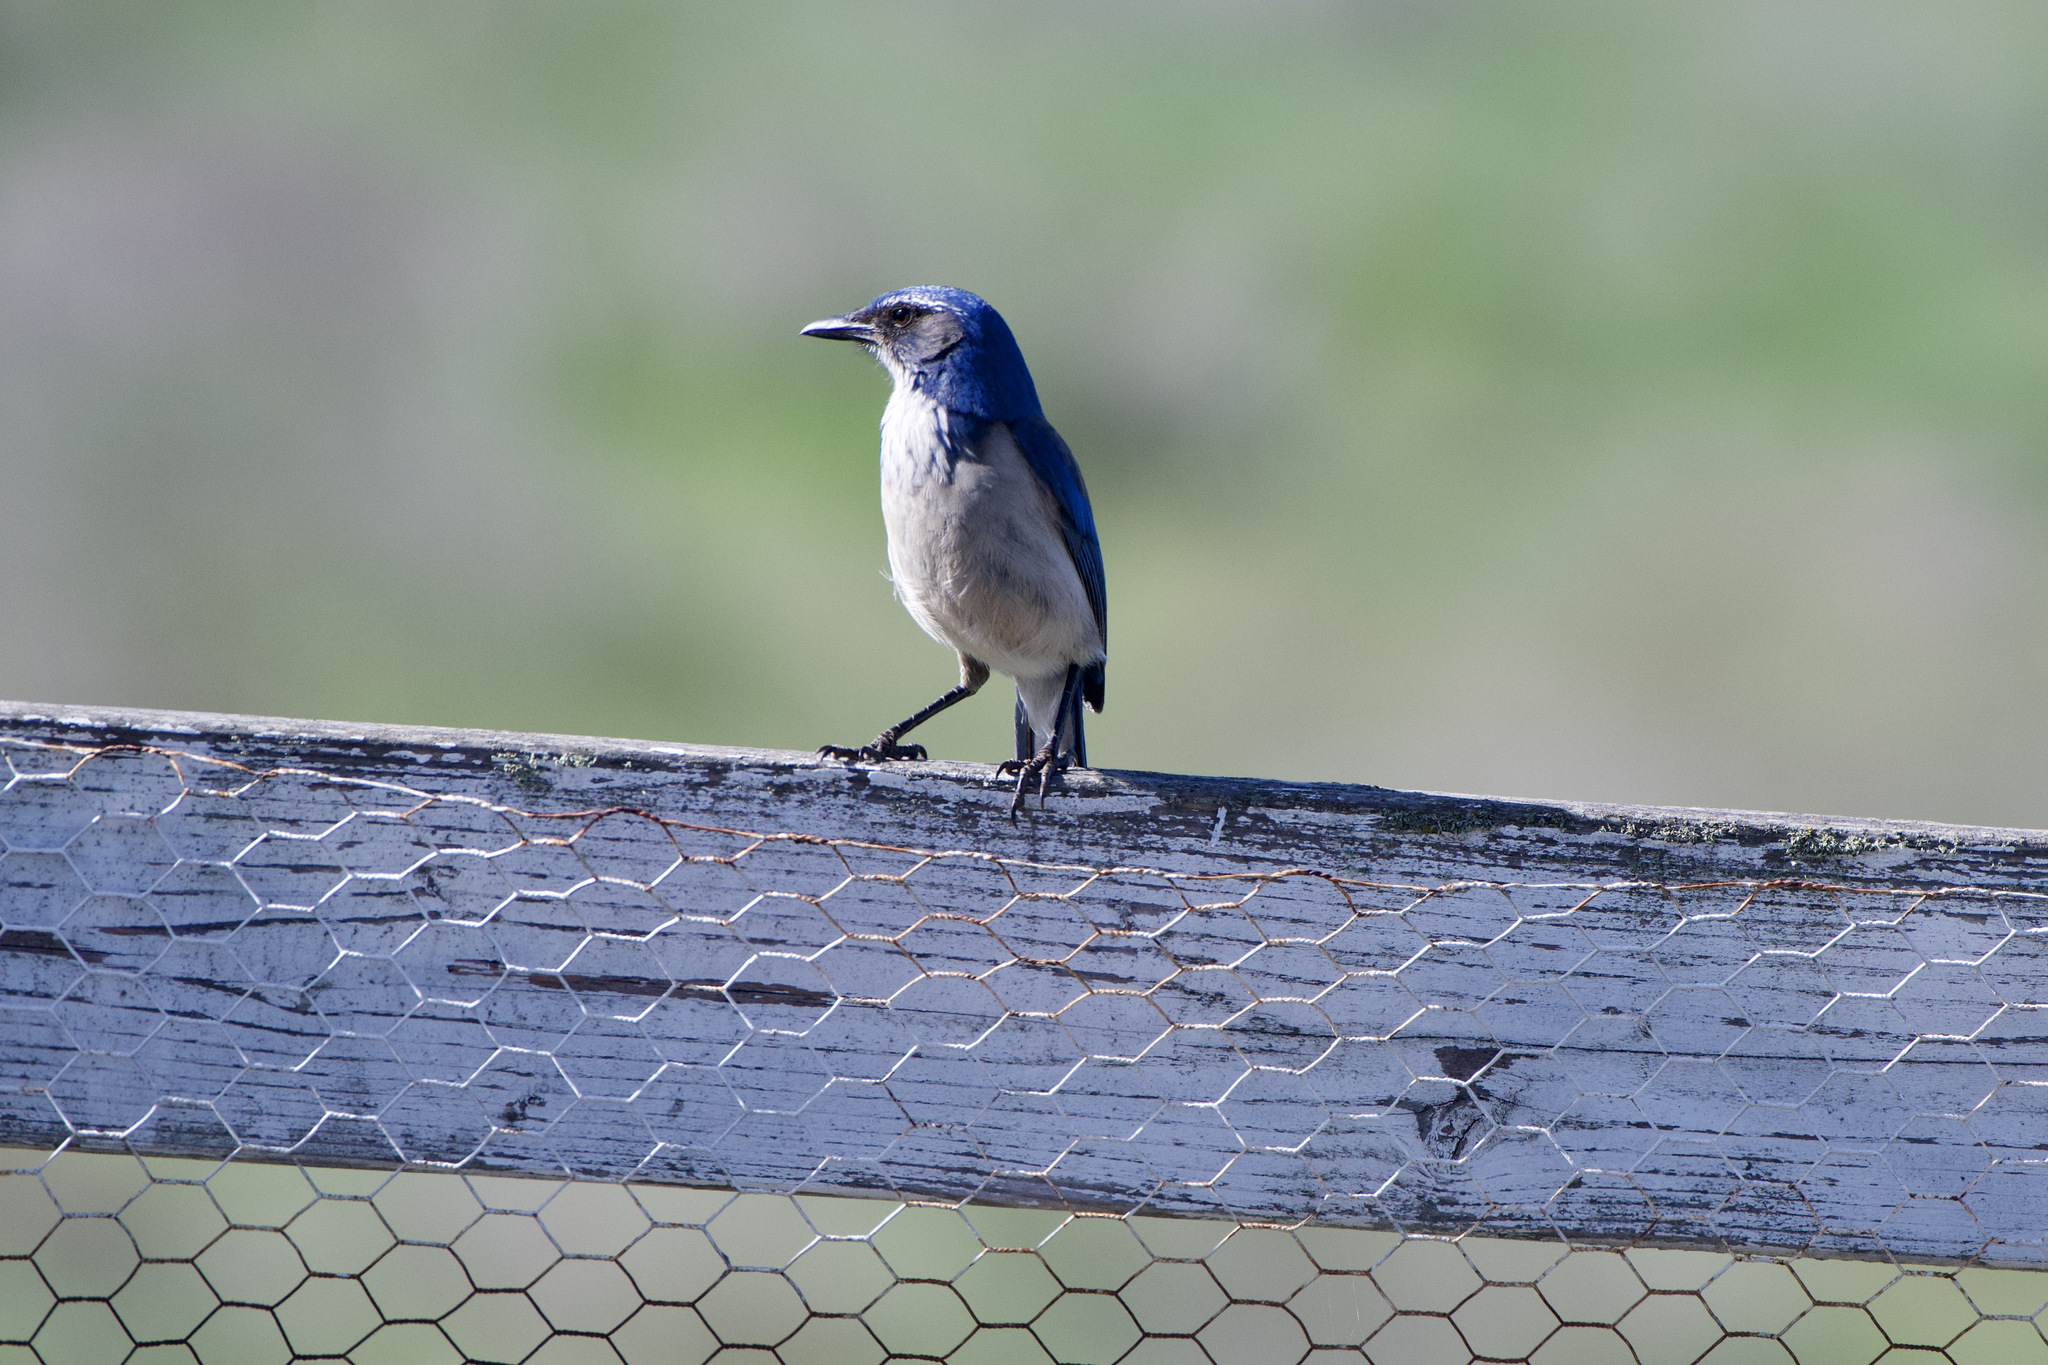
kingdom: Animalia
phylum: Chordata
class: Aves
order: Passeriformes
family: Corvidae
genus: Aphelocoma
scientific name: Aphelocoma californica
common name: California scrub-jay
